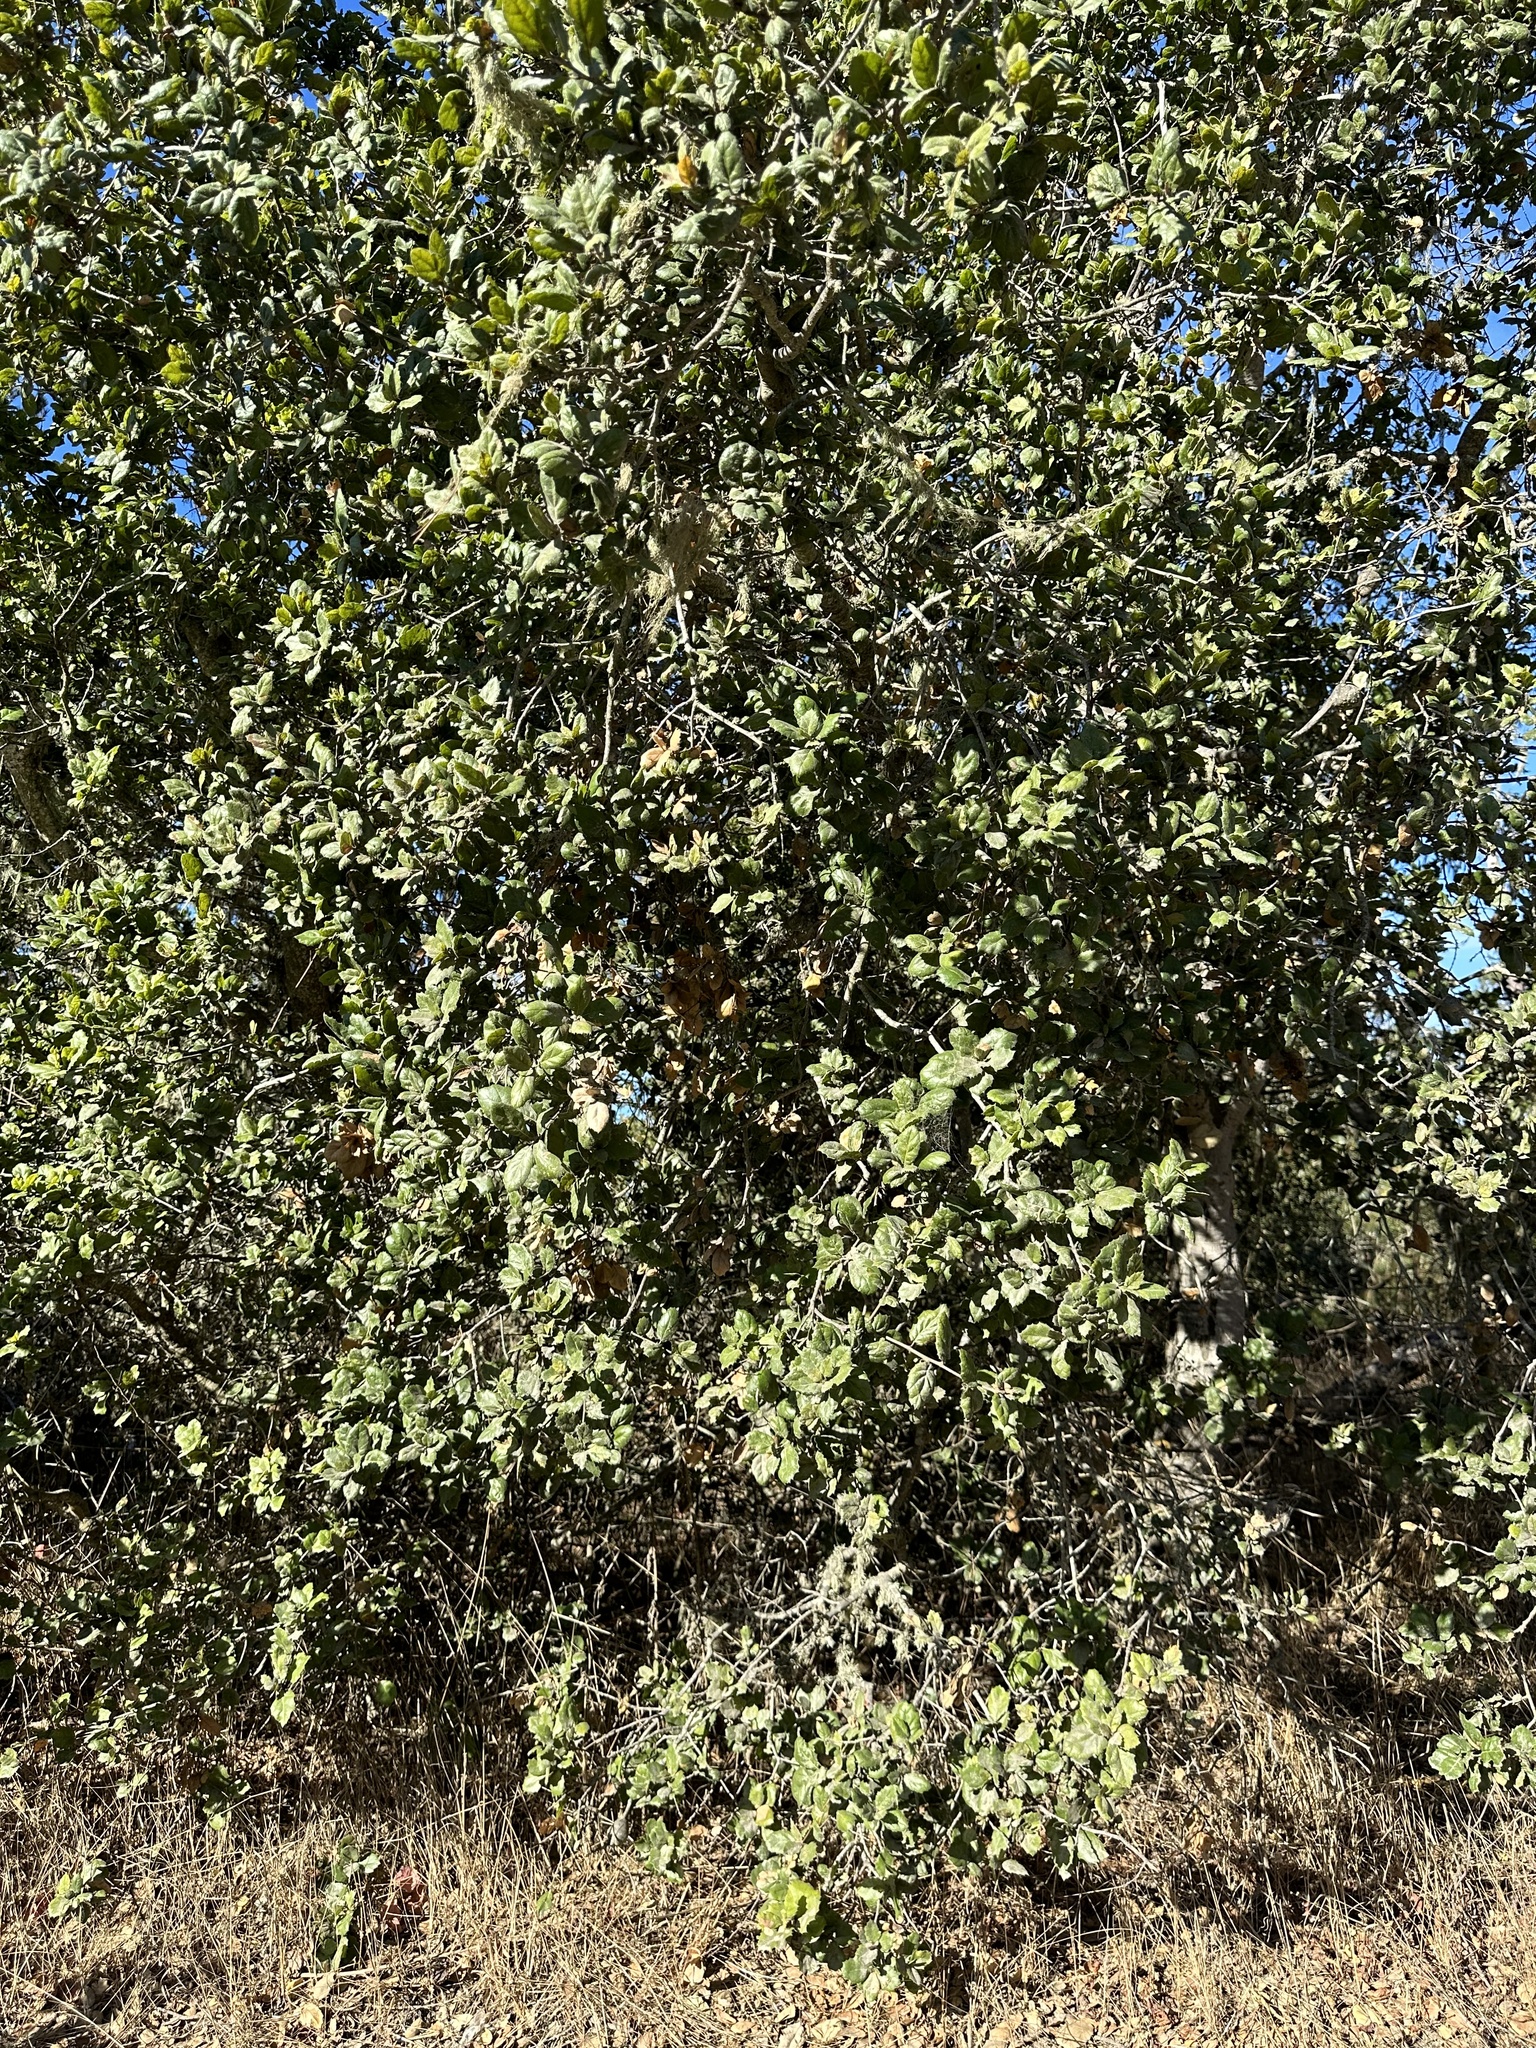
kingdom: Plantae
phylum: Tracheophyta
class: Magnoliopsida
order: Fagales
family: Fagaceae
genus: Quercus
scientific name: Quercus agrifolia
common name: California live oak
